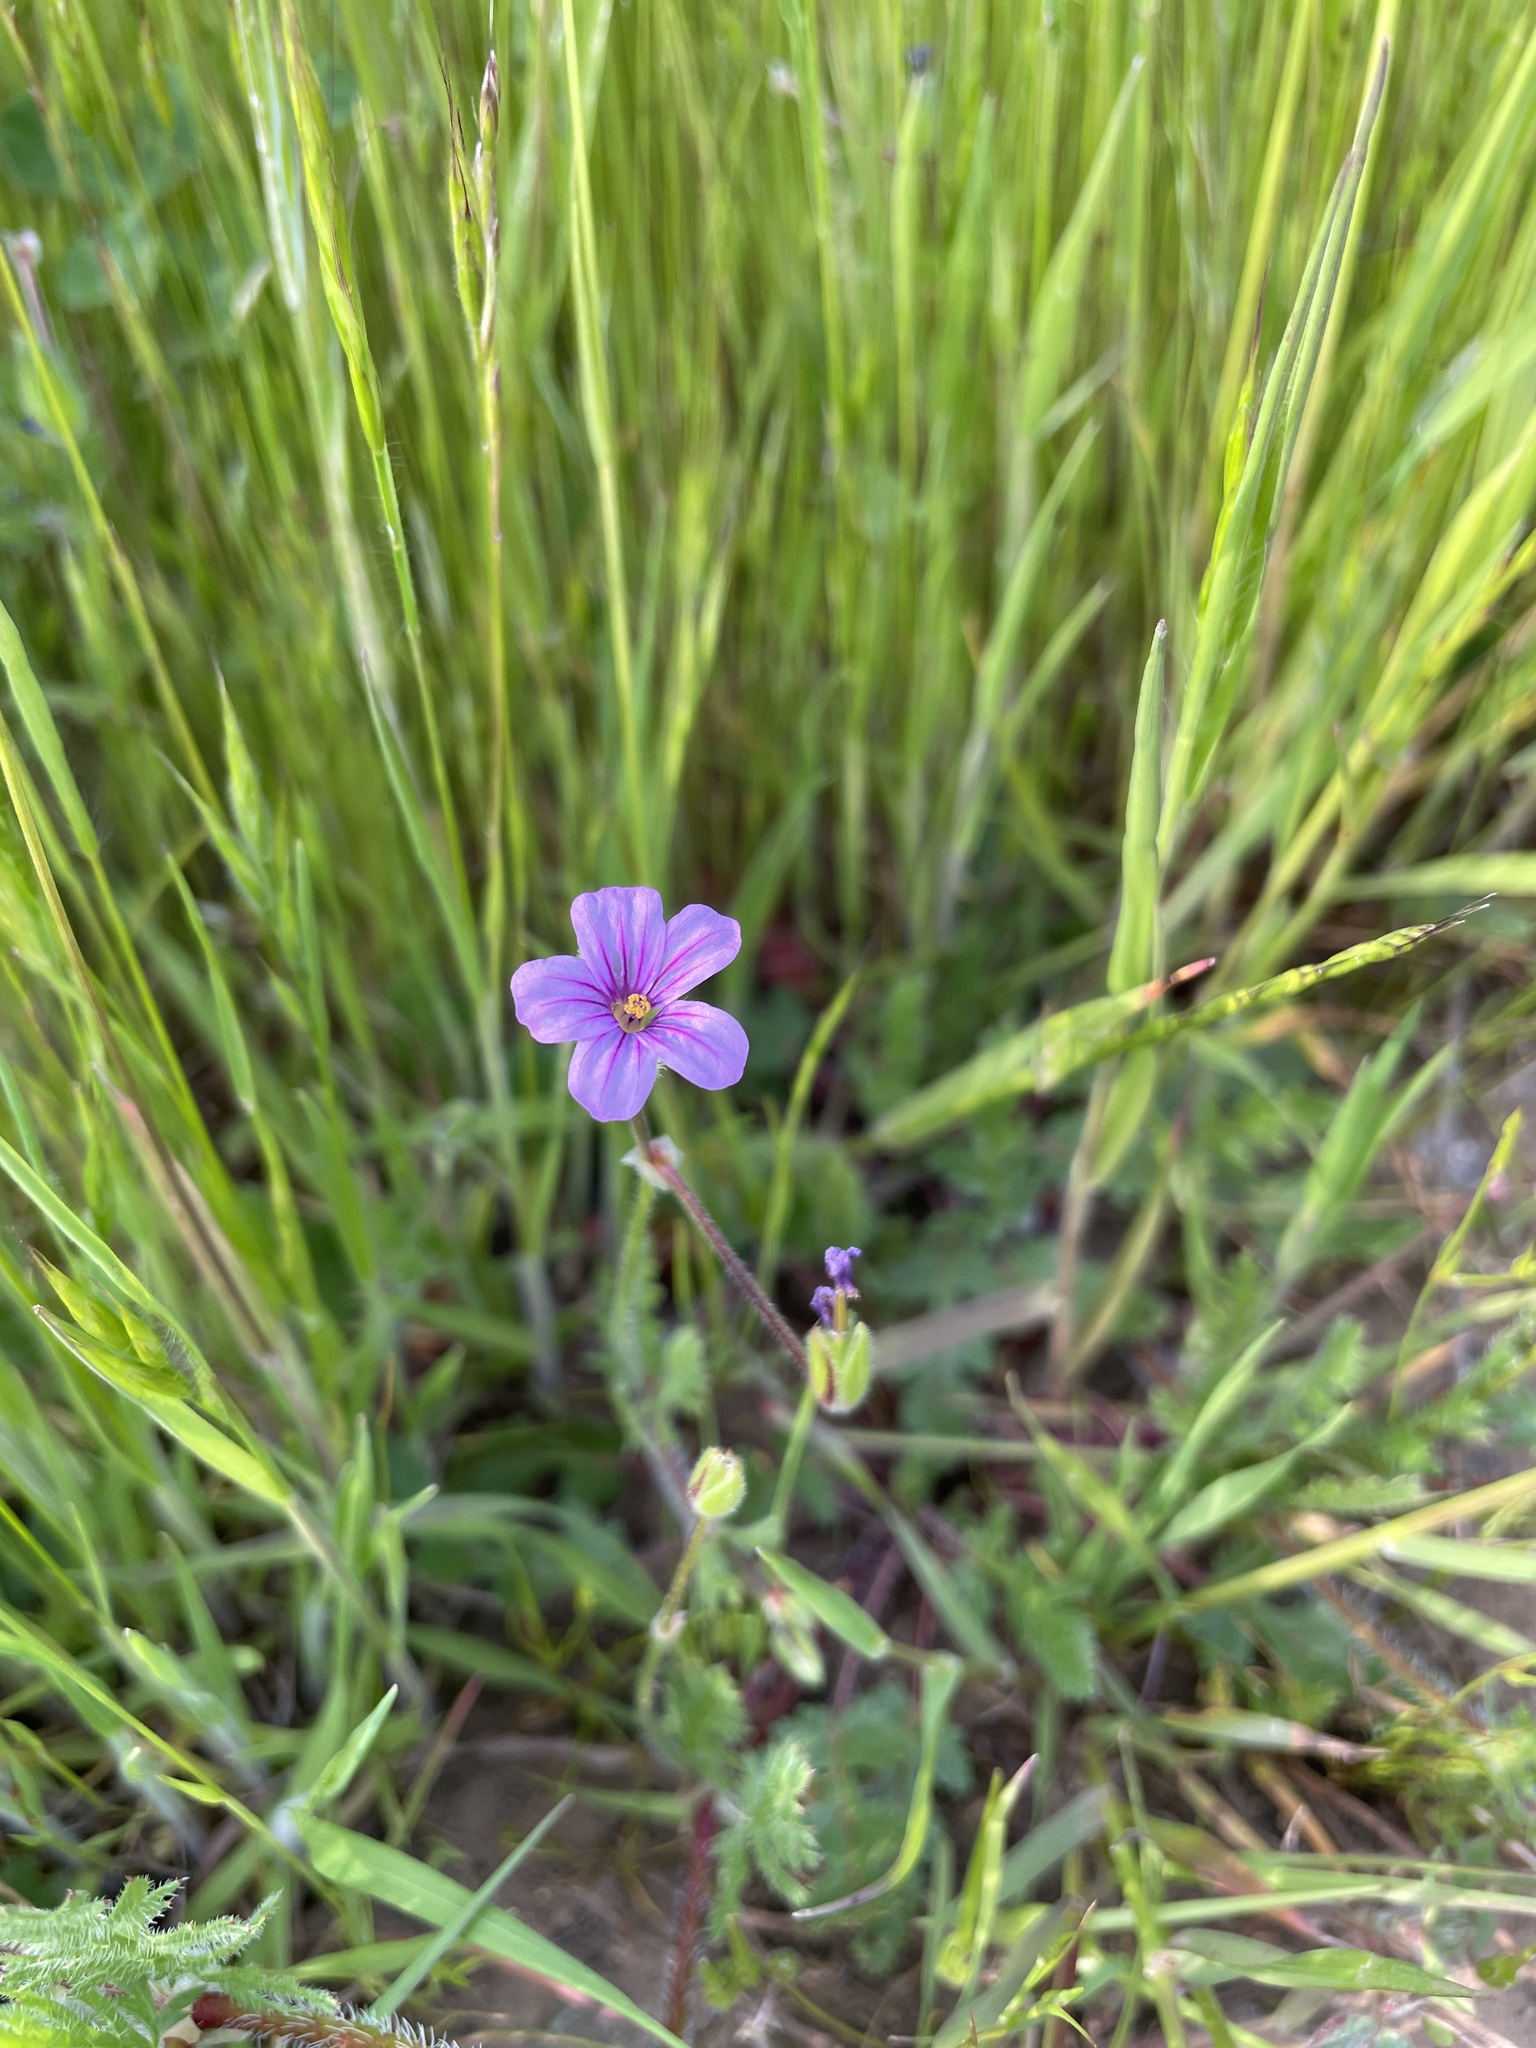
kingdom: Plantae
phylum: Tracheophyta
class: Magnoliopsida
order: Geraniales
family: Geraniaceae
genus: Erodium
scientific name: Erodium botrys
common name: Mediterranean stork's-bill
